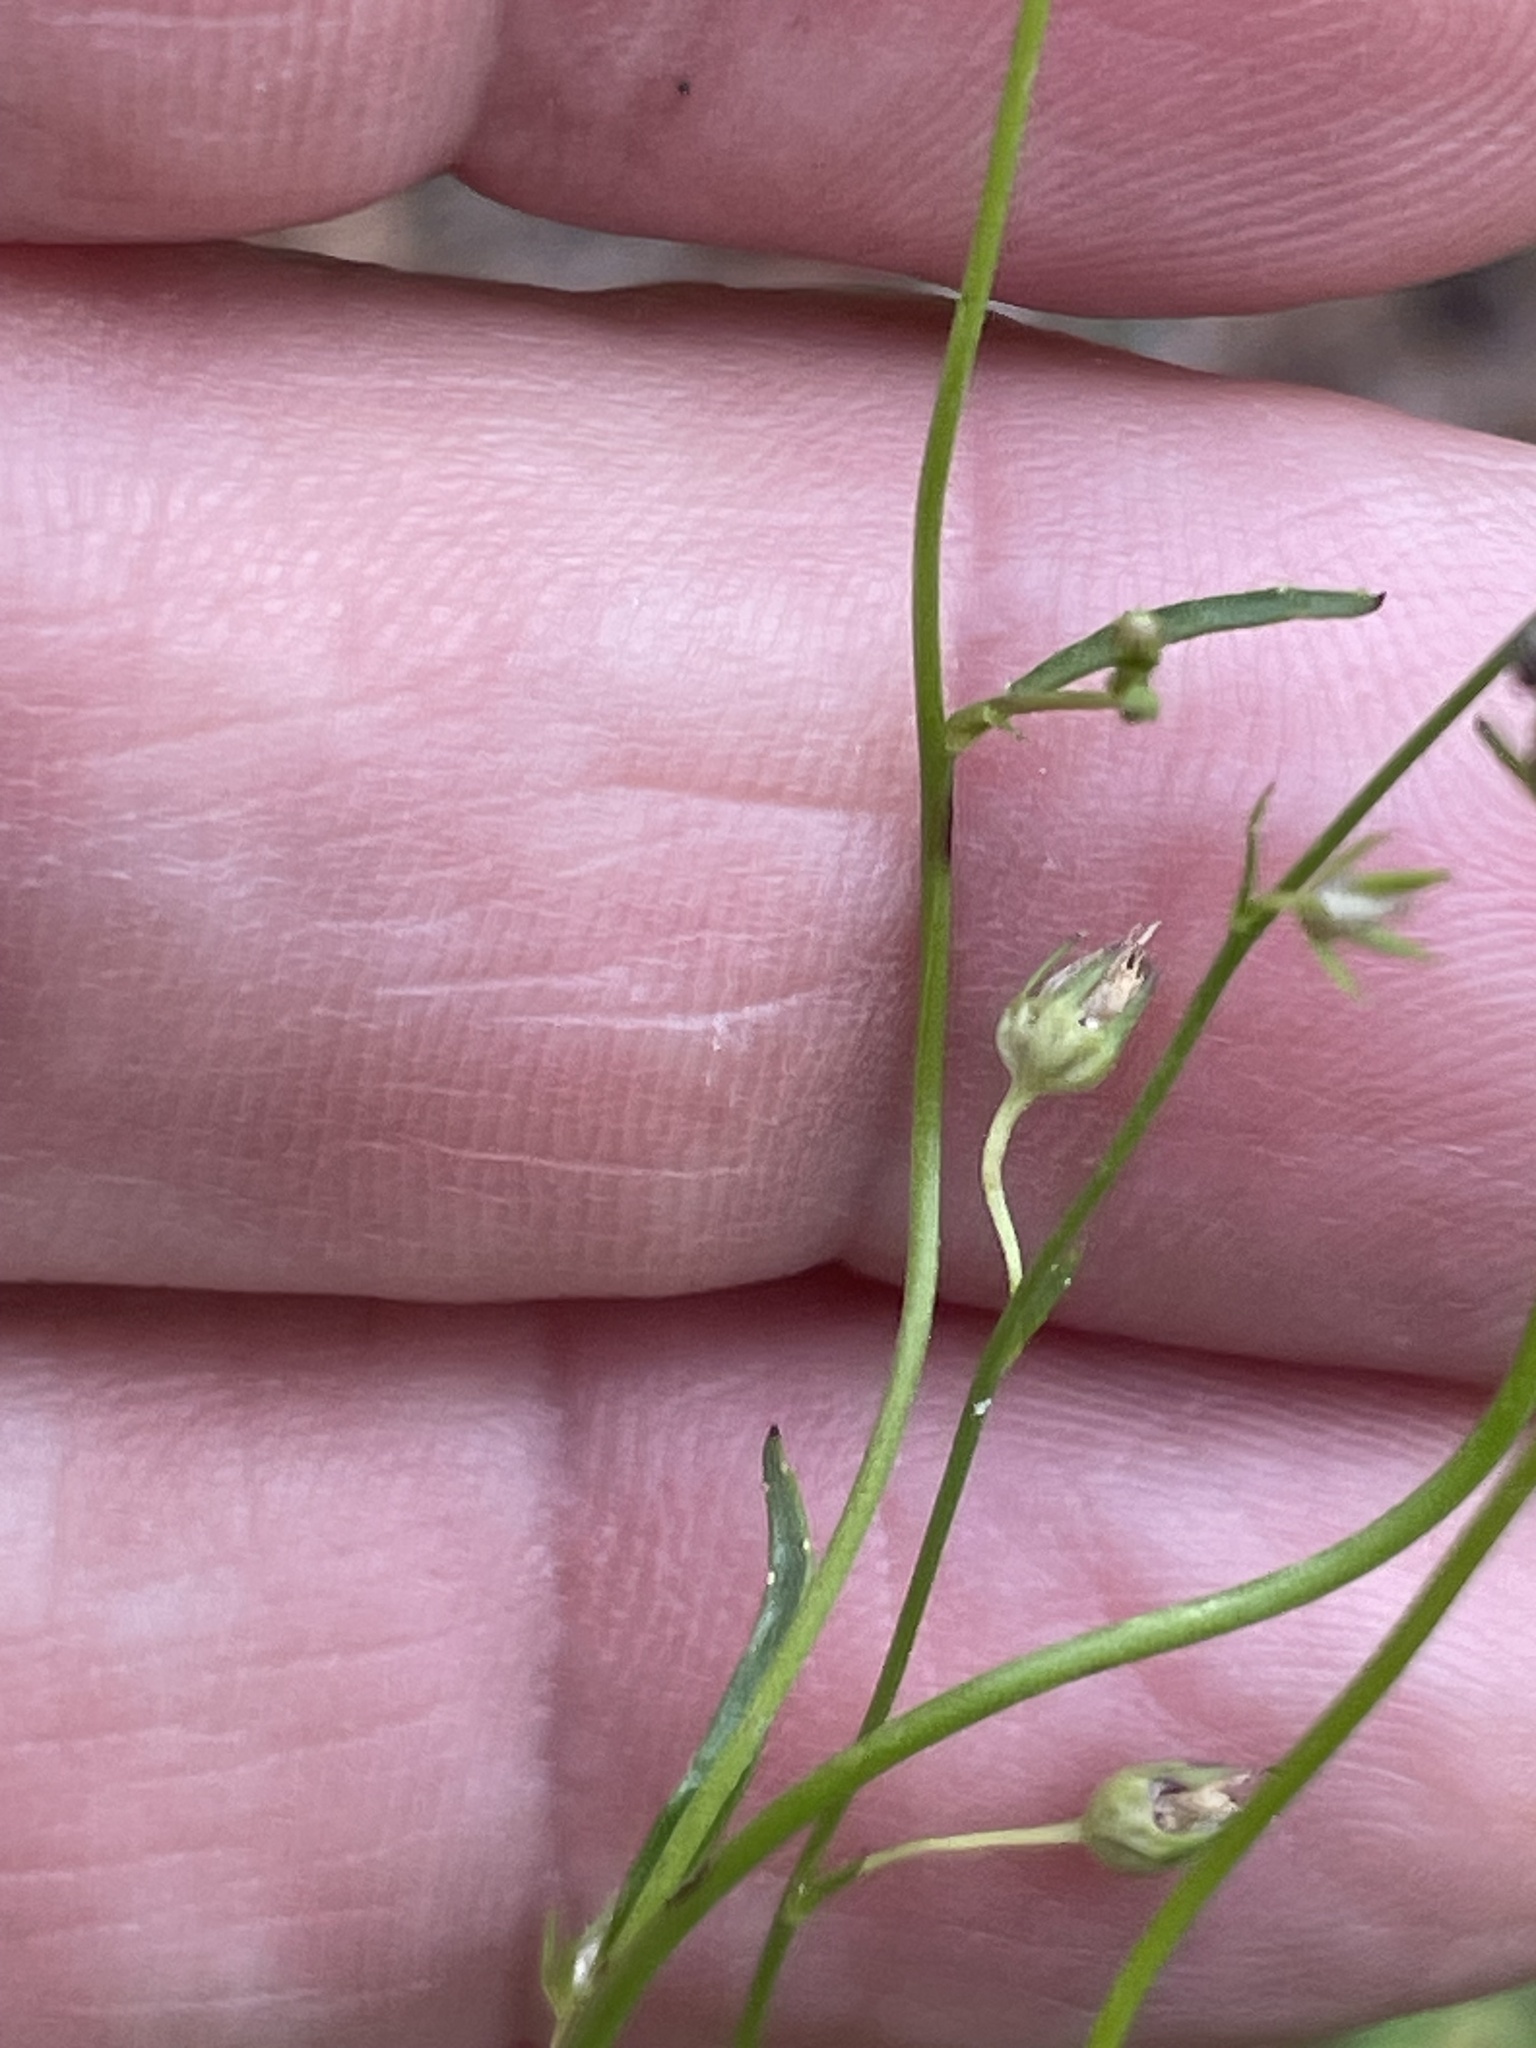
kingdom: Plantae
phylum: Tracheophyta
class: Magnoliopsida
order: Asterales
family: Campanulaceae
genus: Lobelia
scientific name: Lobelia nuttallii
